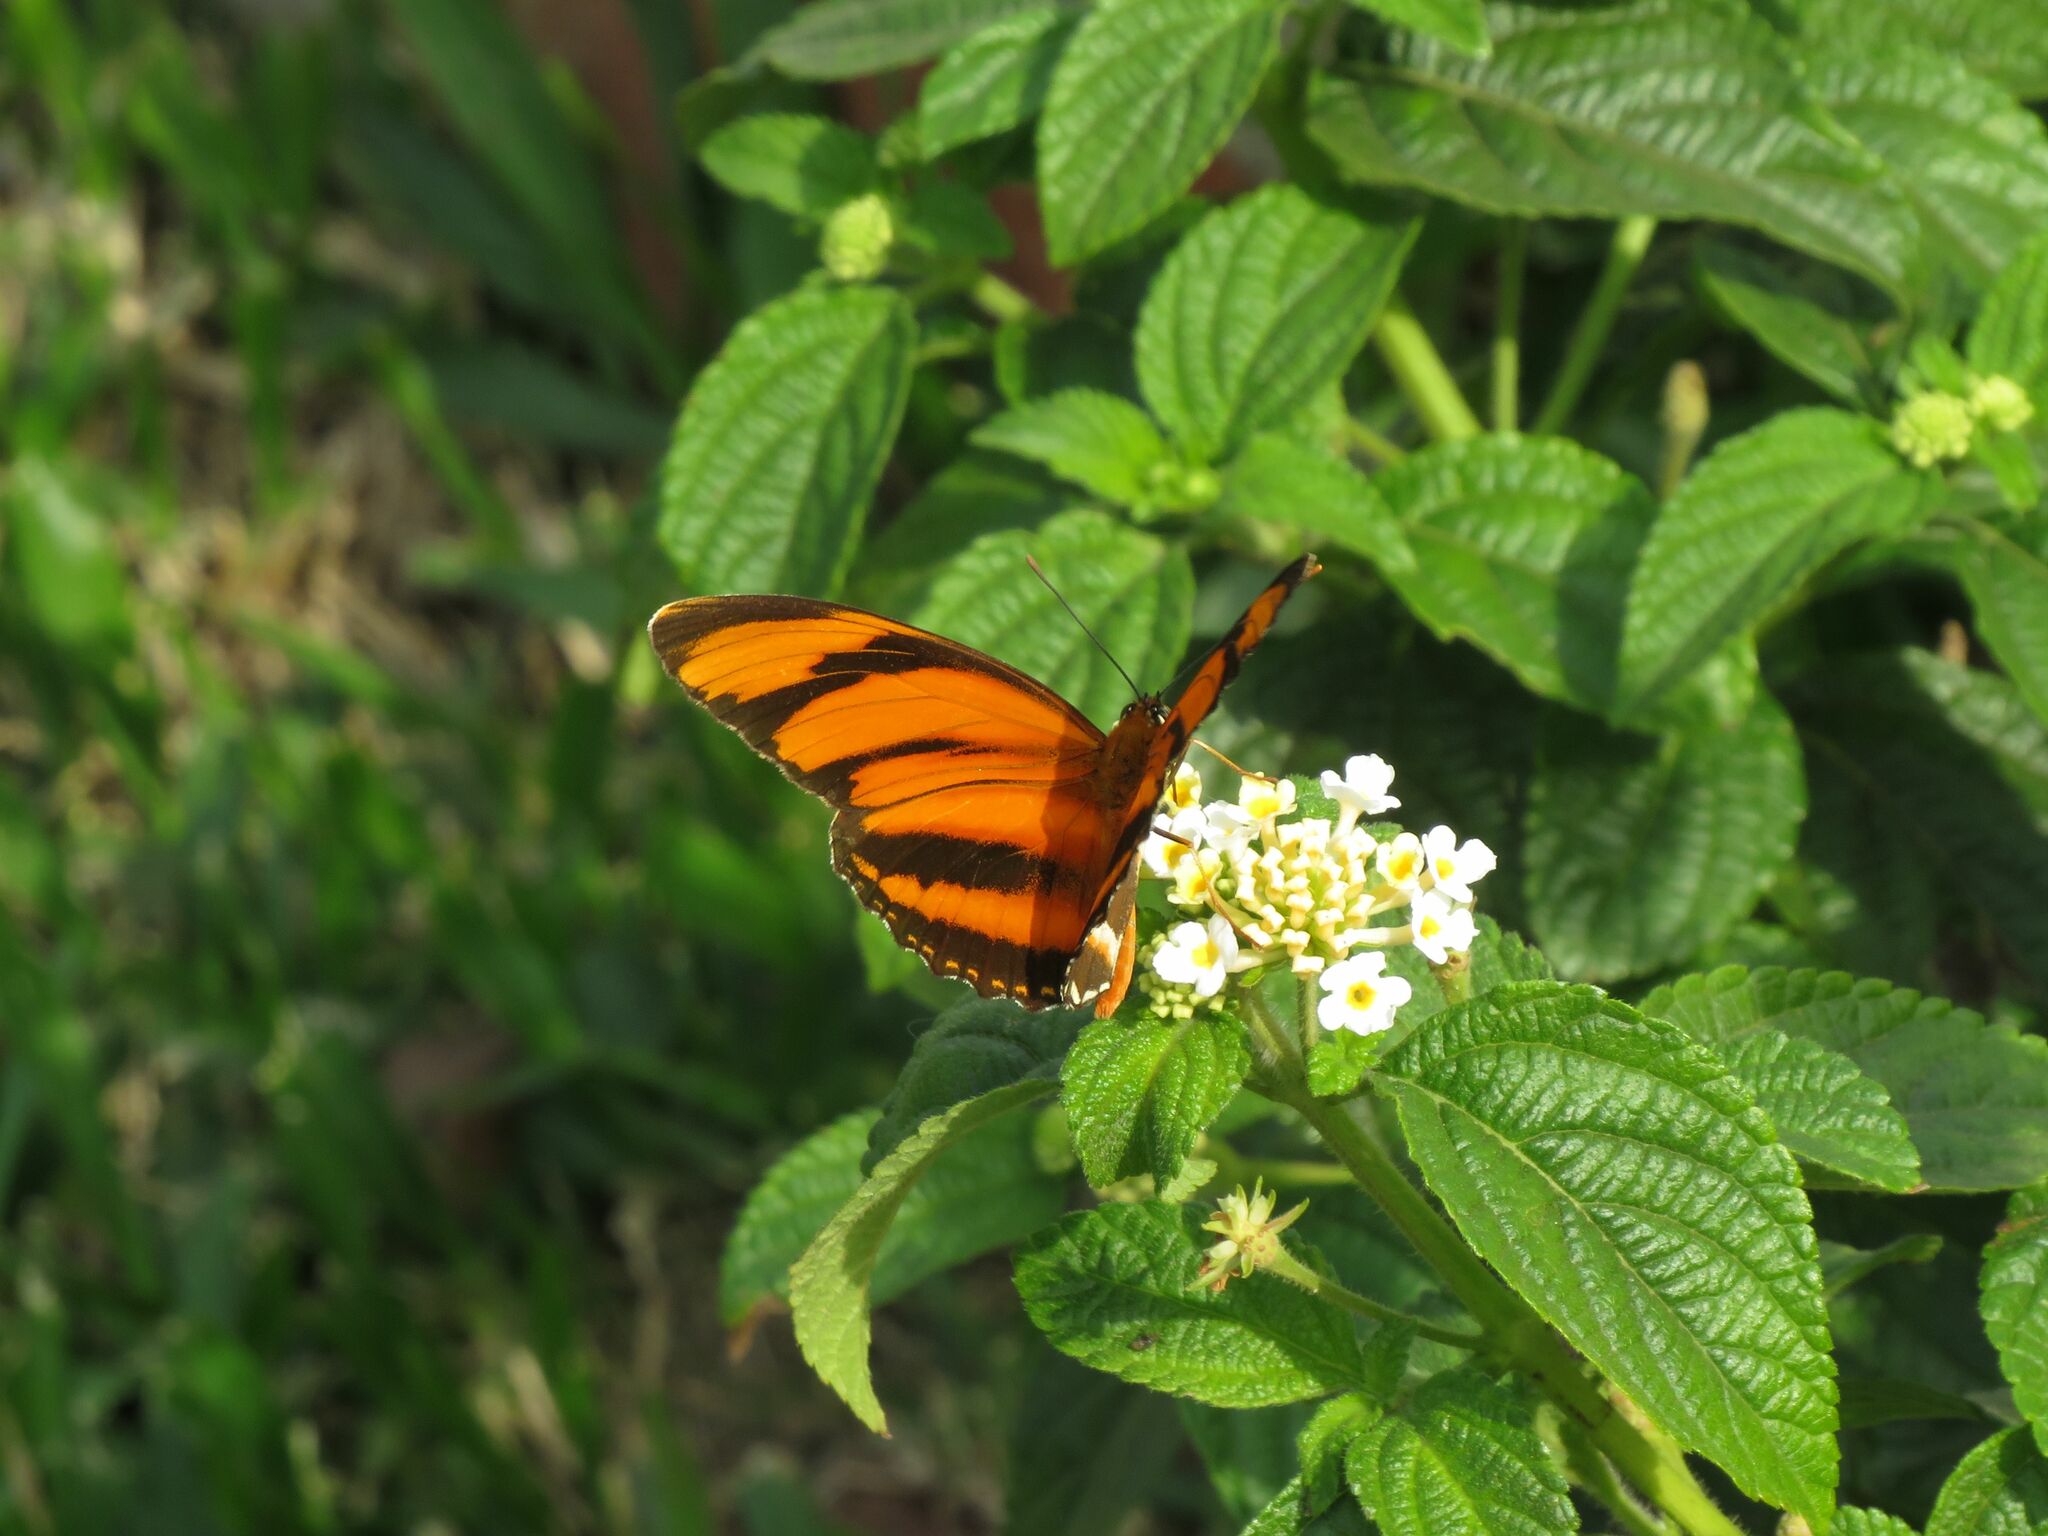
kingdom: Animalia
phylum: Arthropoda
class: Insecta
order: Lepidoptera
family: Nymphalidae
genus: Dryadula
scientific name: Dryadula phaetusa
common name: Banded orange heliconian
